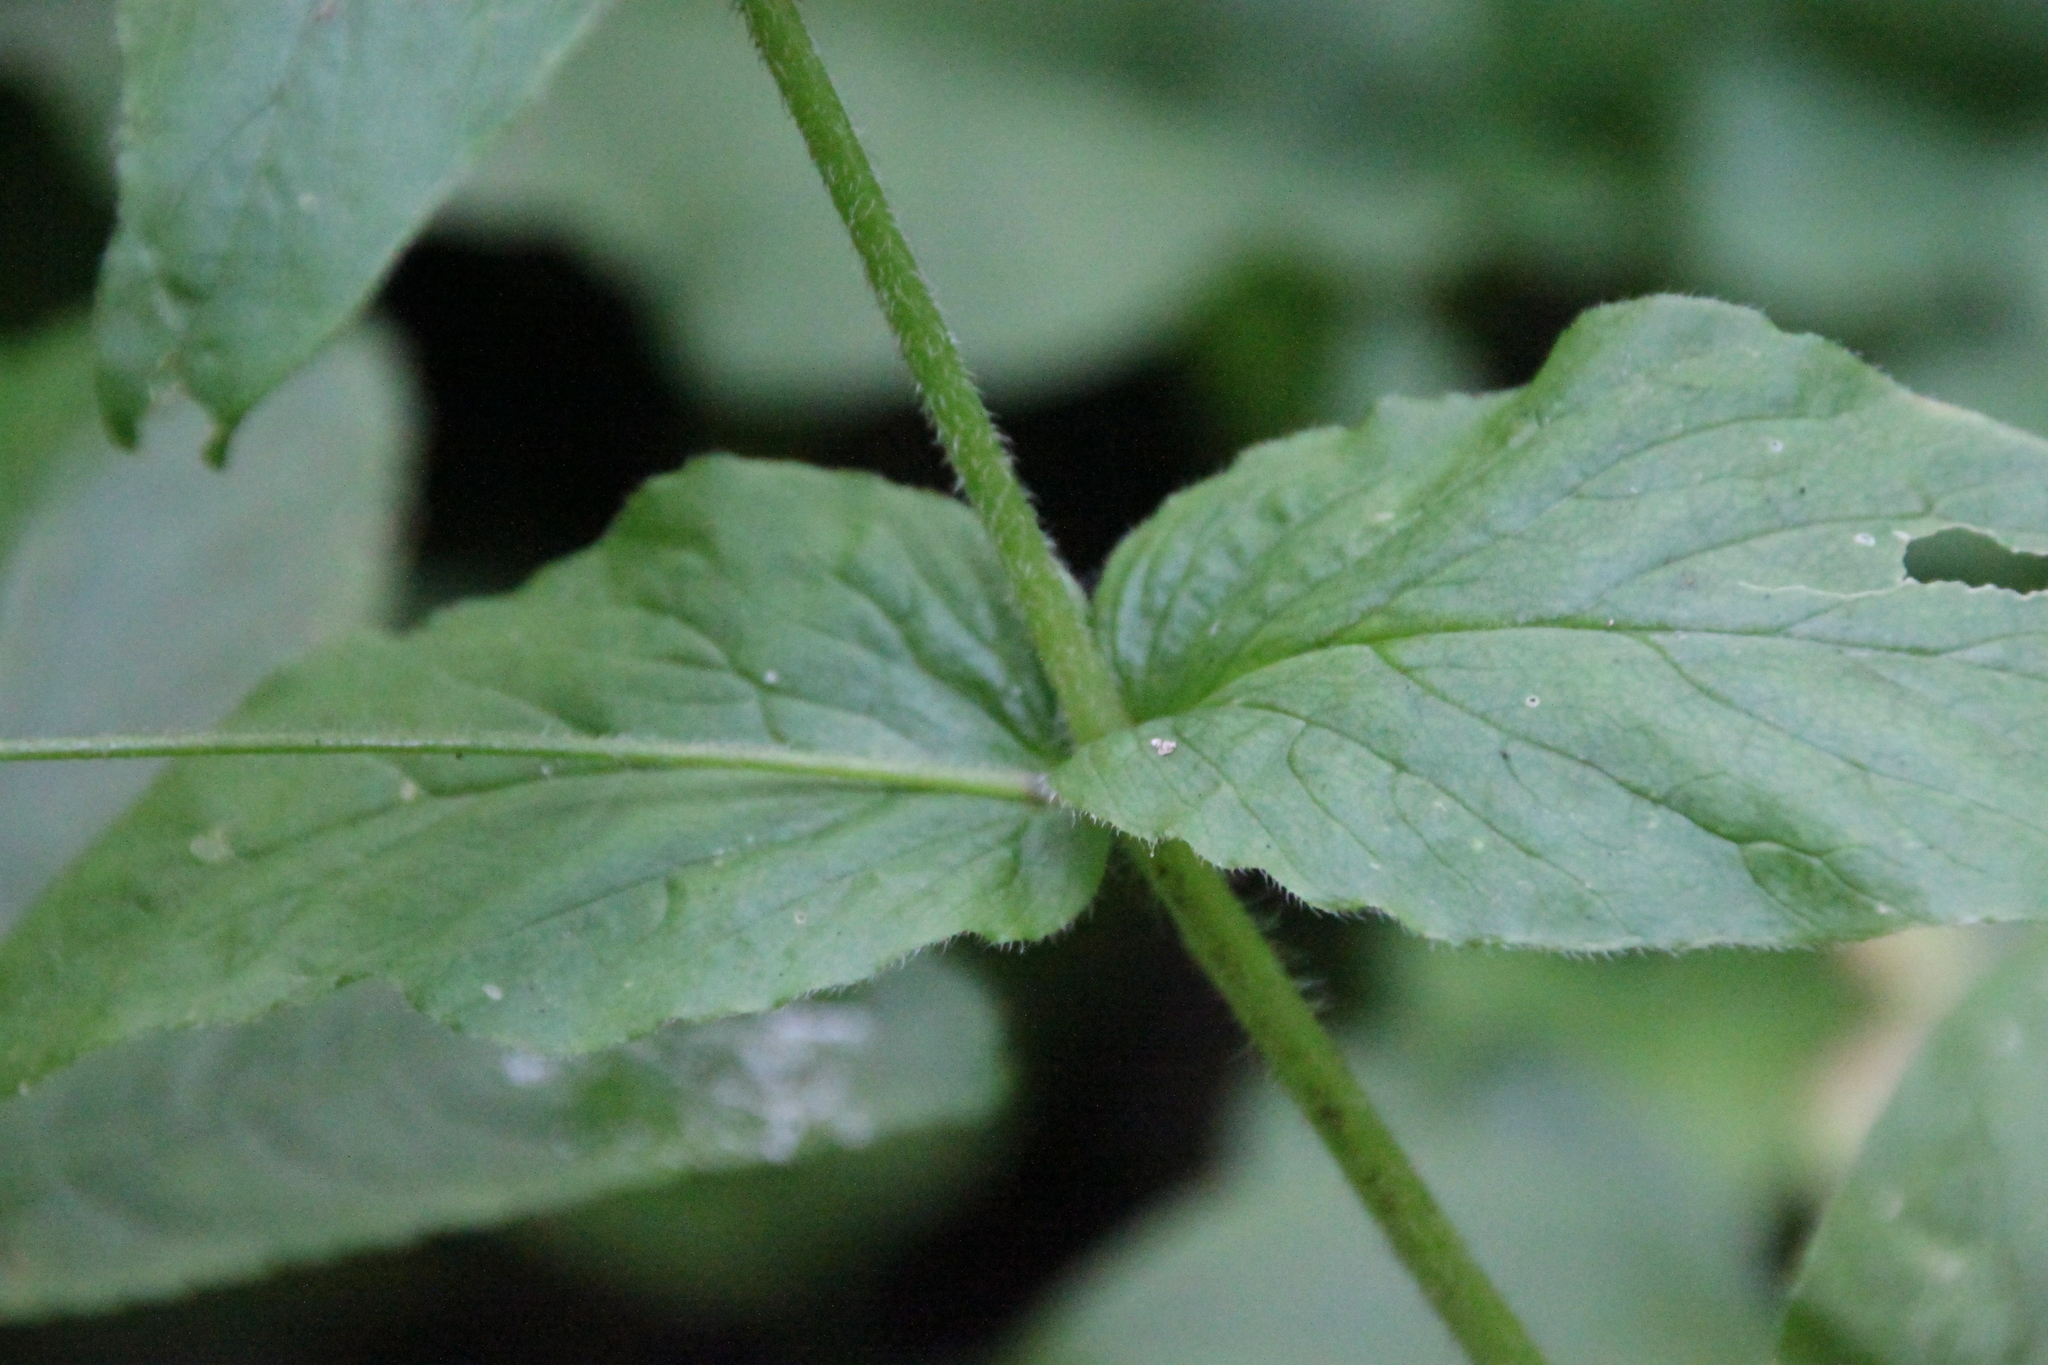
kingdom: Plantae
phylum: Tracheophyta
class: Magnoliopsida
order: Caryophyllales
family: Caryophyllaceae
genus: Stellaria
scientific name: Stellaria nemorum
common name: Wood stitchwort
